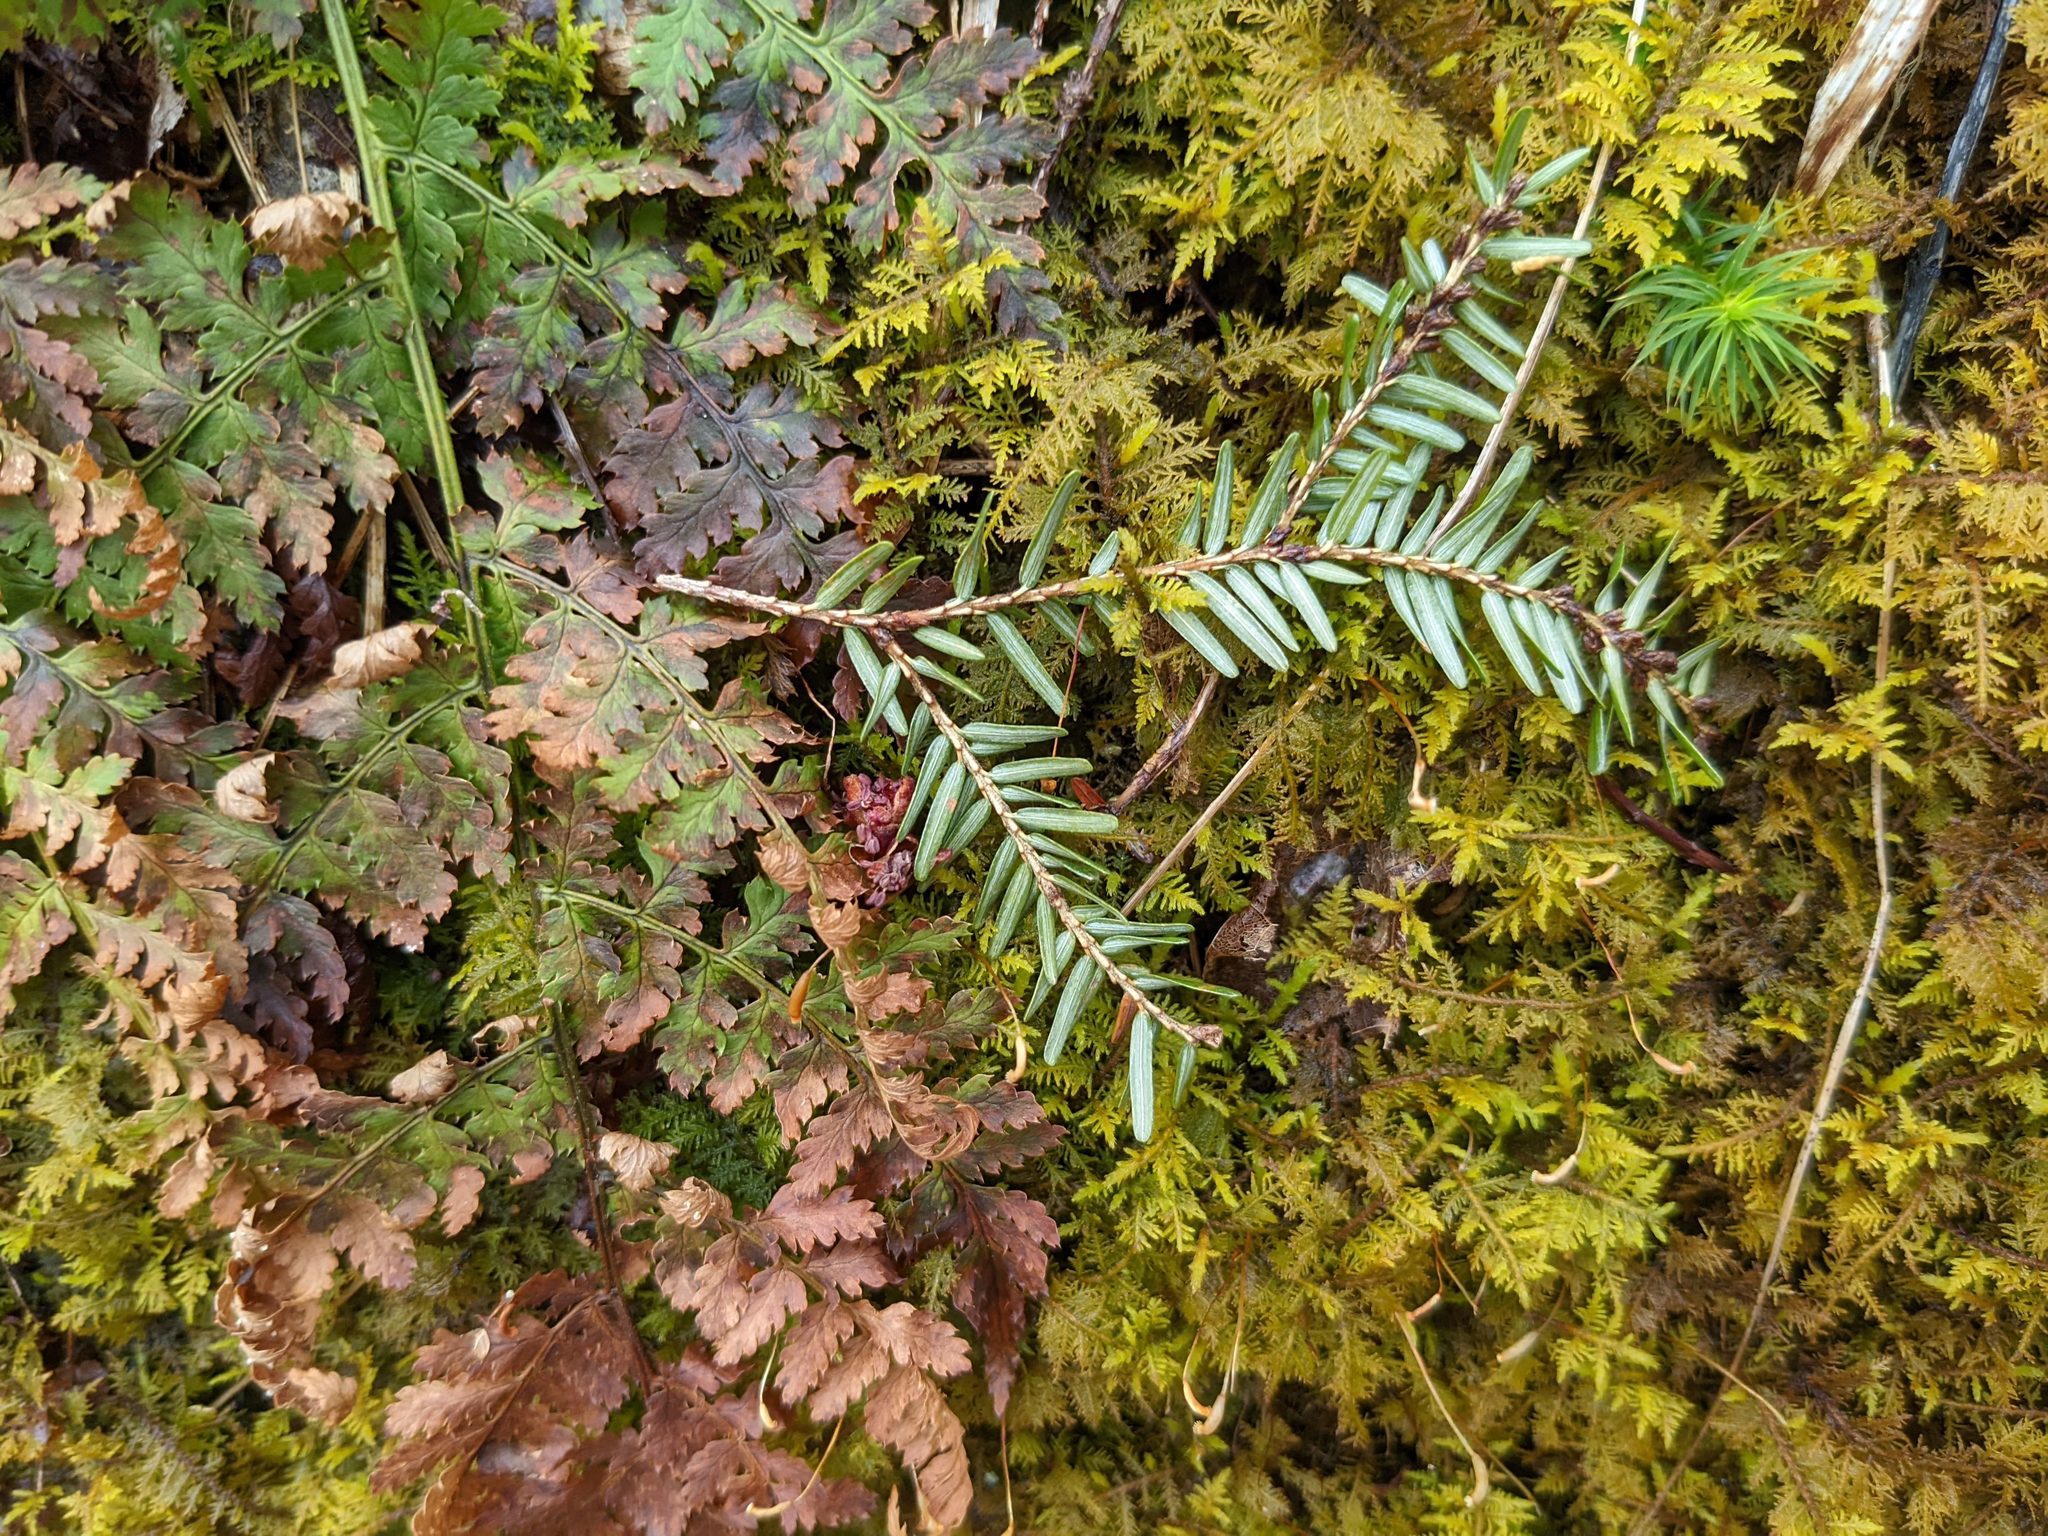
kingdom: Plantae
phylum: Tracheophyta
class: Polypodiopsida
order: Polypodiales
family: Dryopteridaceae
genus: Dryopteris
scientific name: Dryopteris intermedia
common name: Evergreen wood fern
